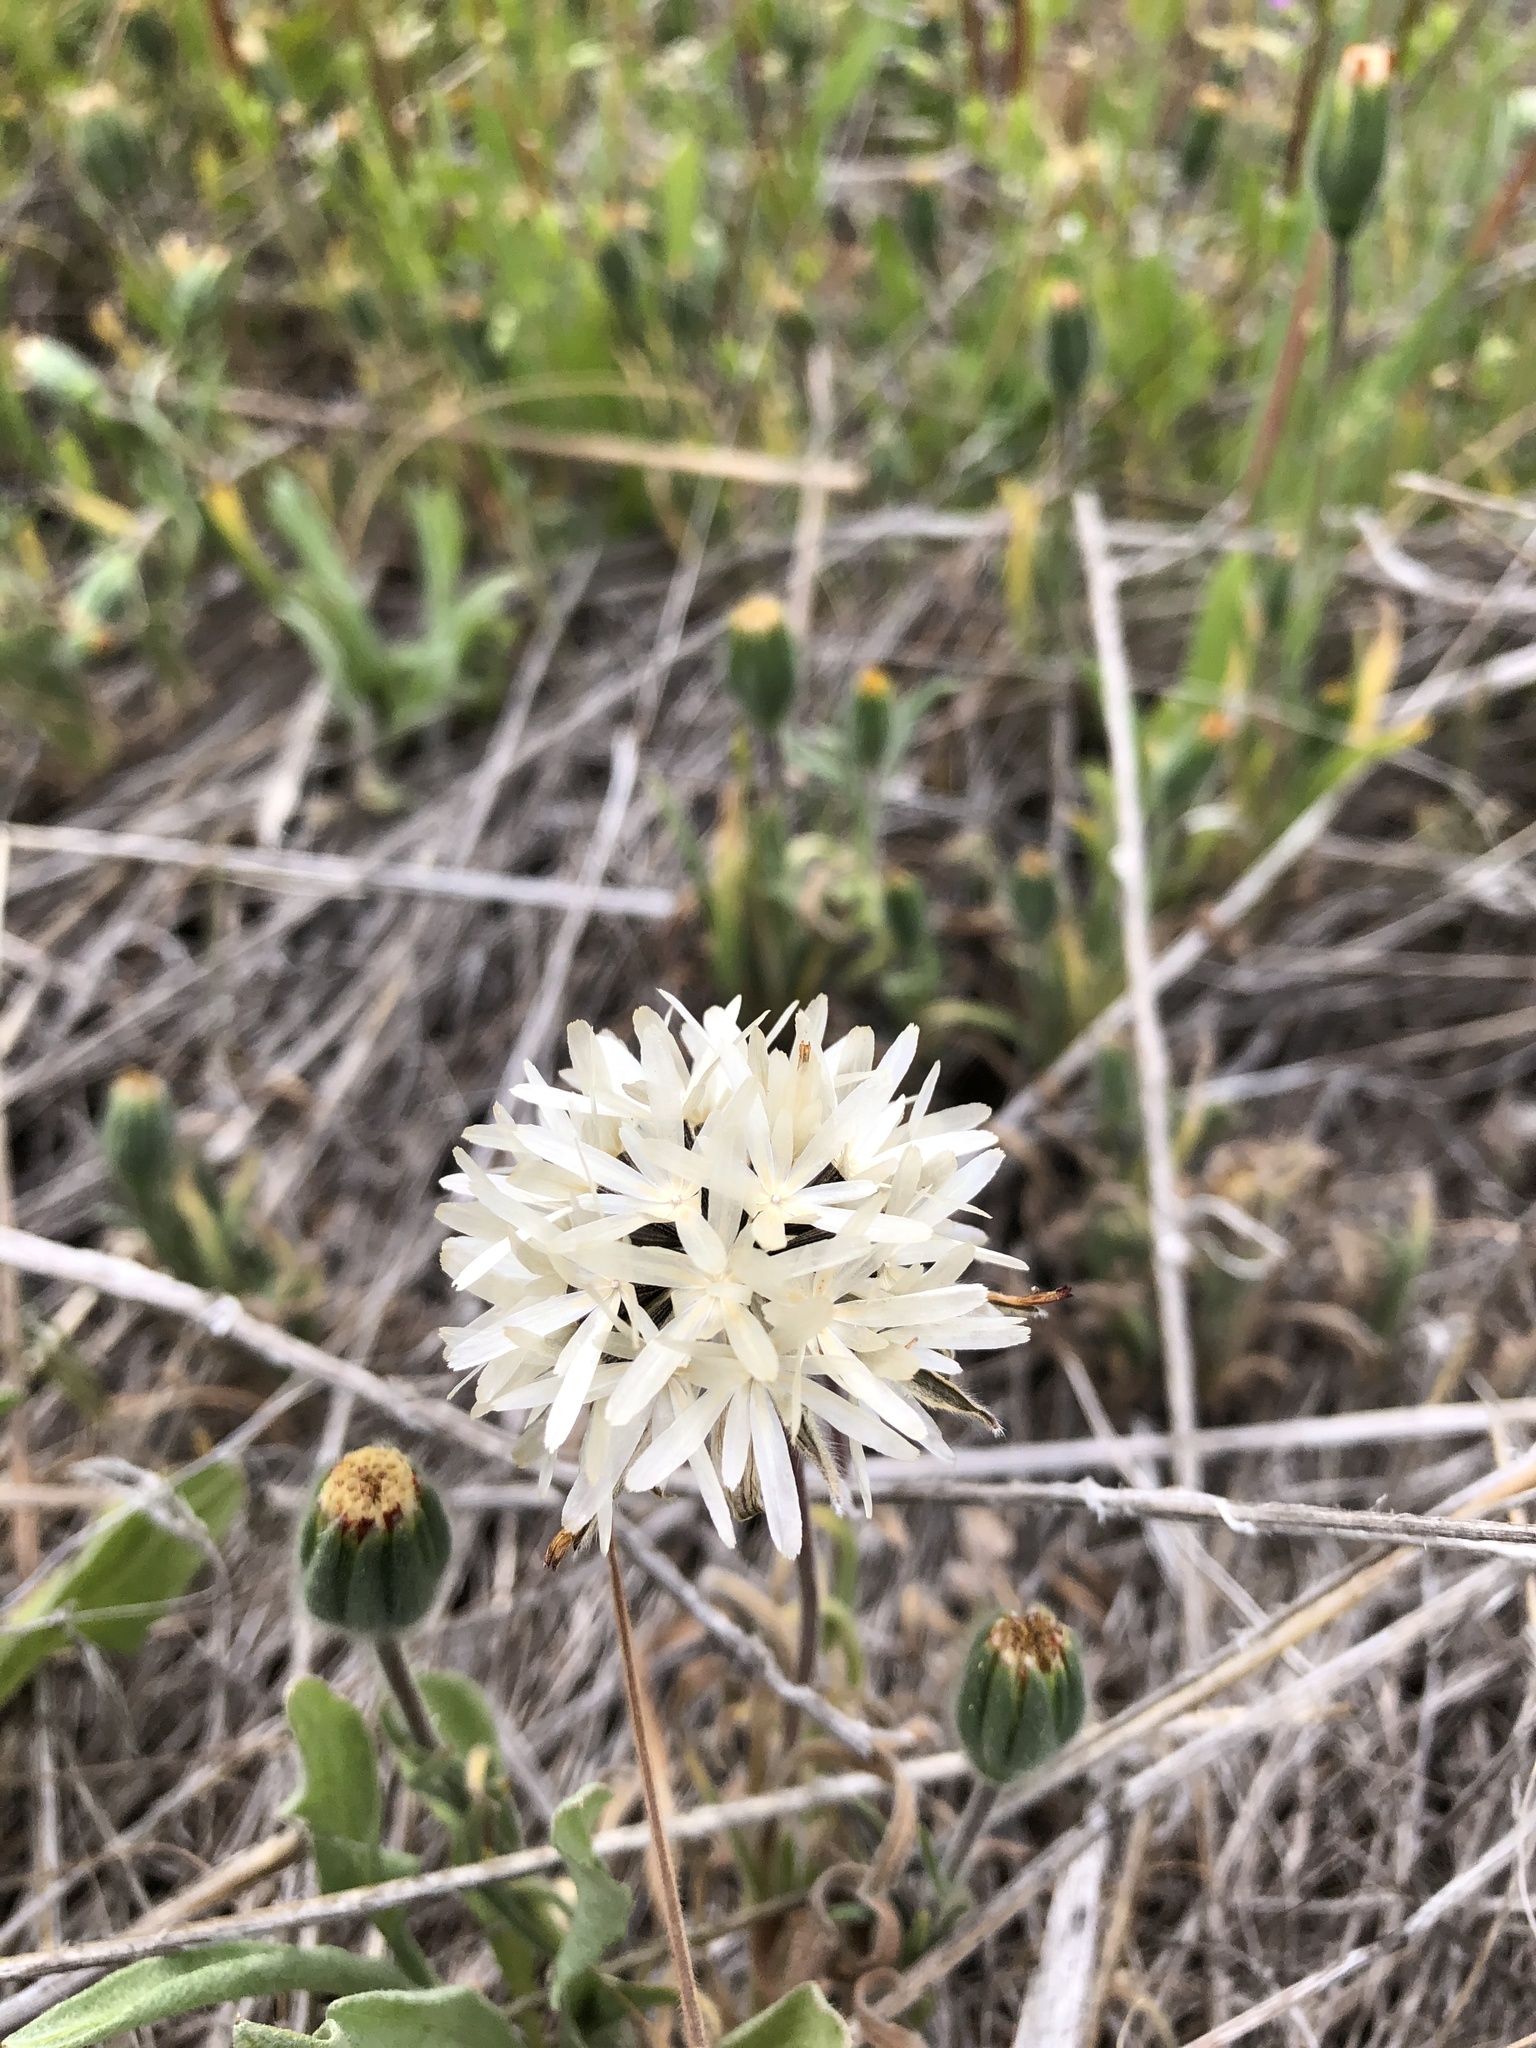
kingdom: Plantae
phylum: Tracheophyta
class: Magnoliopsida
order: Asterales
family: Asteraceae
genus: Achyrachaena
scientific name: Achyrachaena mollis
